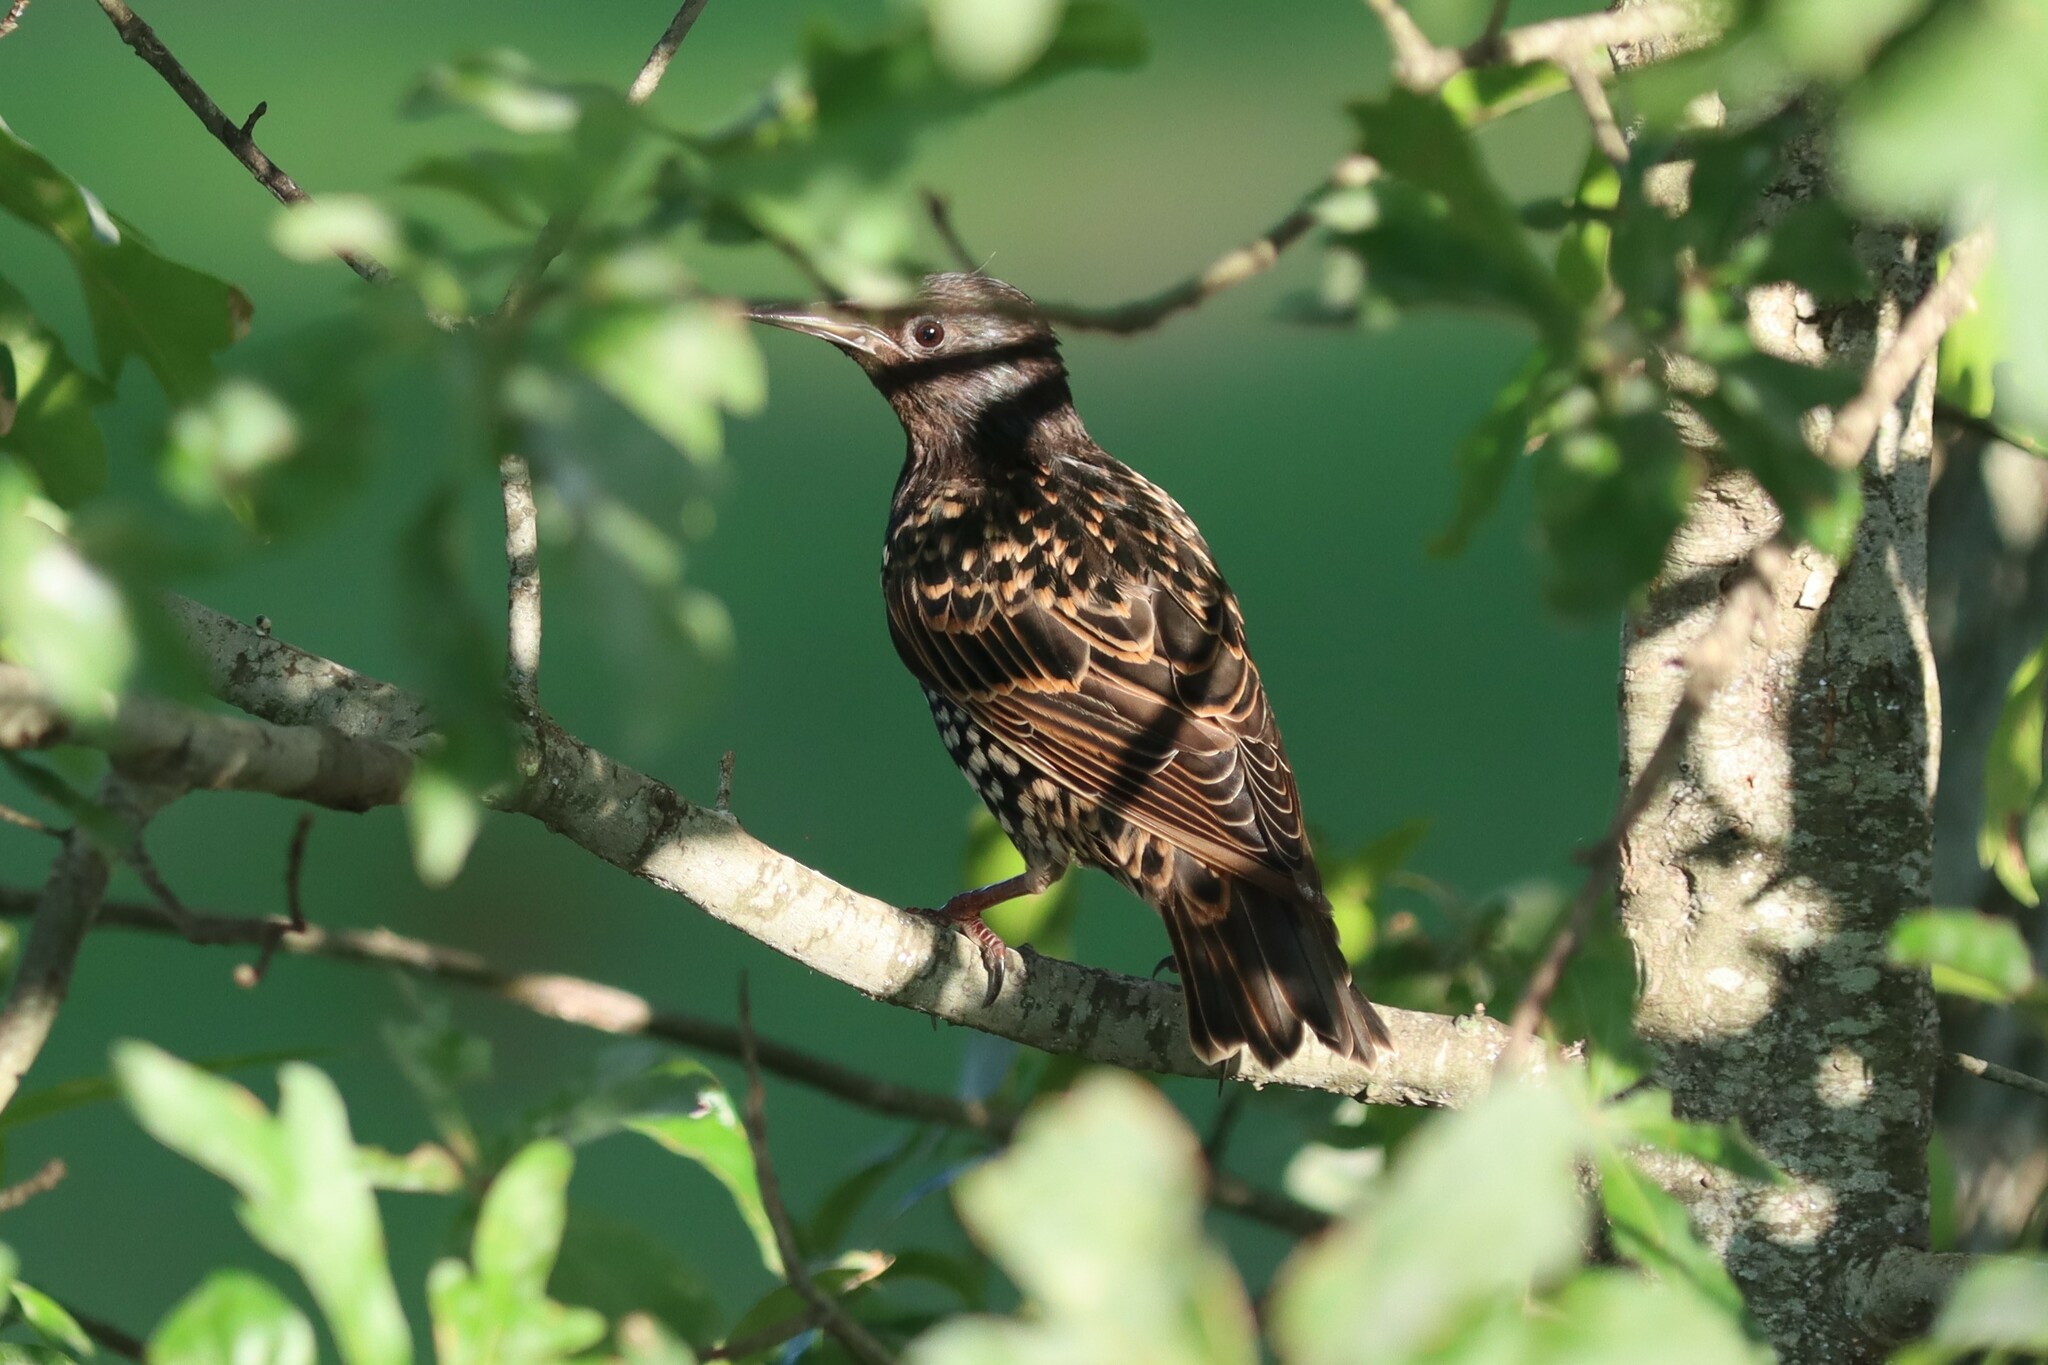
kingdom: Animalia
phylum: Chordata
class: Aves
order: Passeriformes
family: Sturnidae
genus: Sturnus
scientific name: Sturnus vulgaris
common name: Common starling
